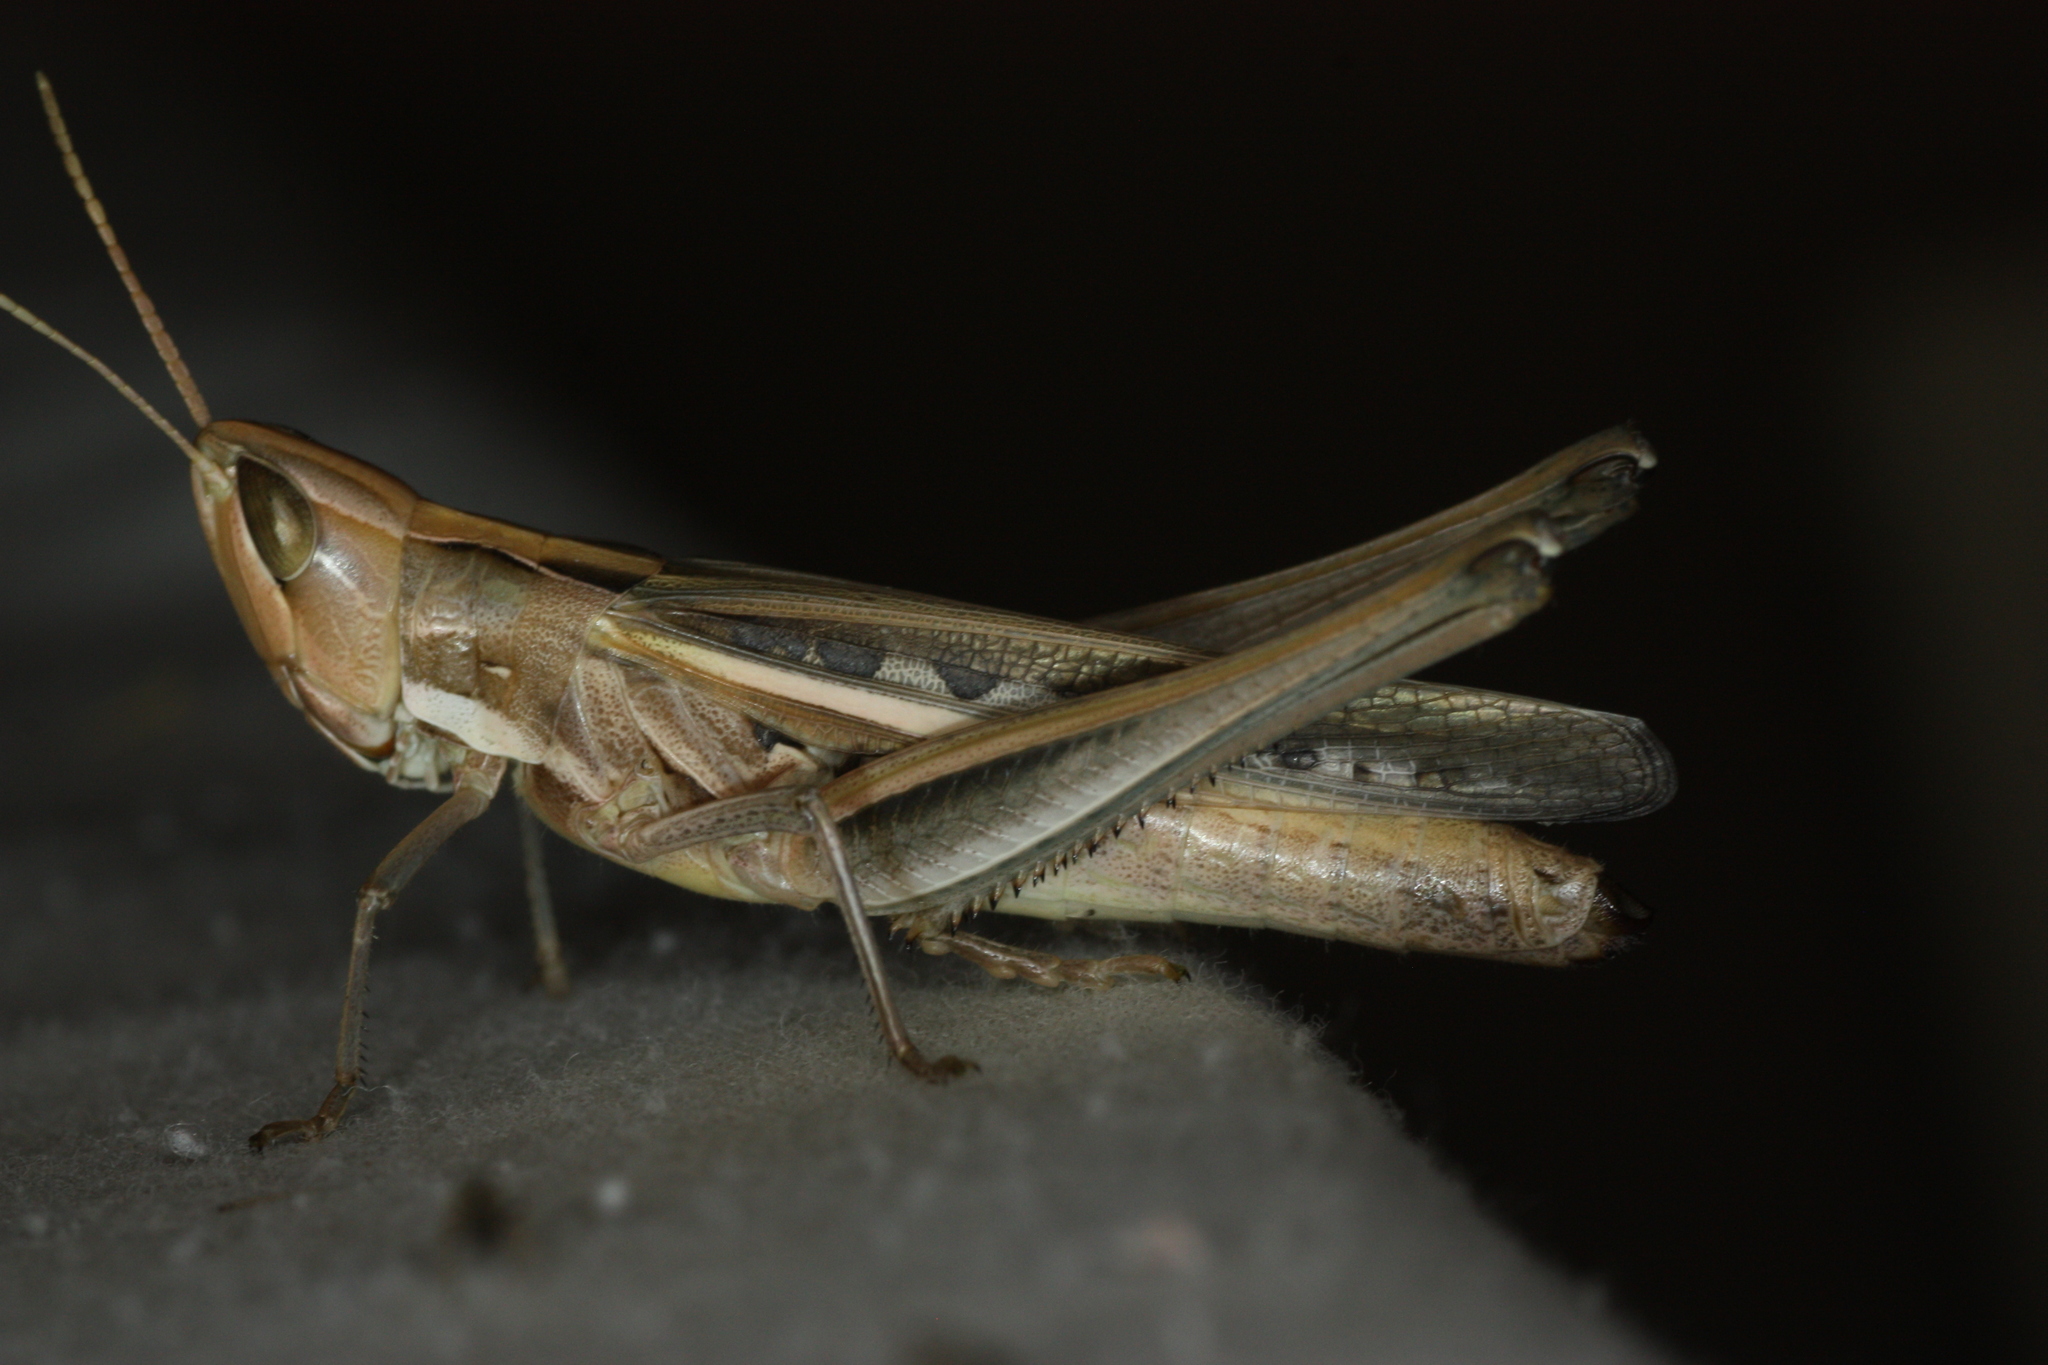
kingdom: Animalia
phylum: Arthropoda
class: Insecta
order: Orthoptera
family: Acrididae
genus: Syrbula
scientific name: Syrbula montezuma
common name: Montezuma's grasshopper
